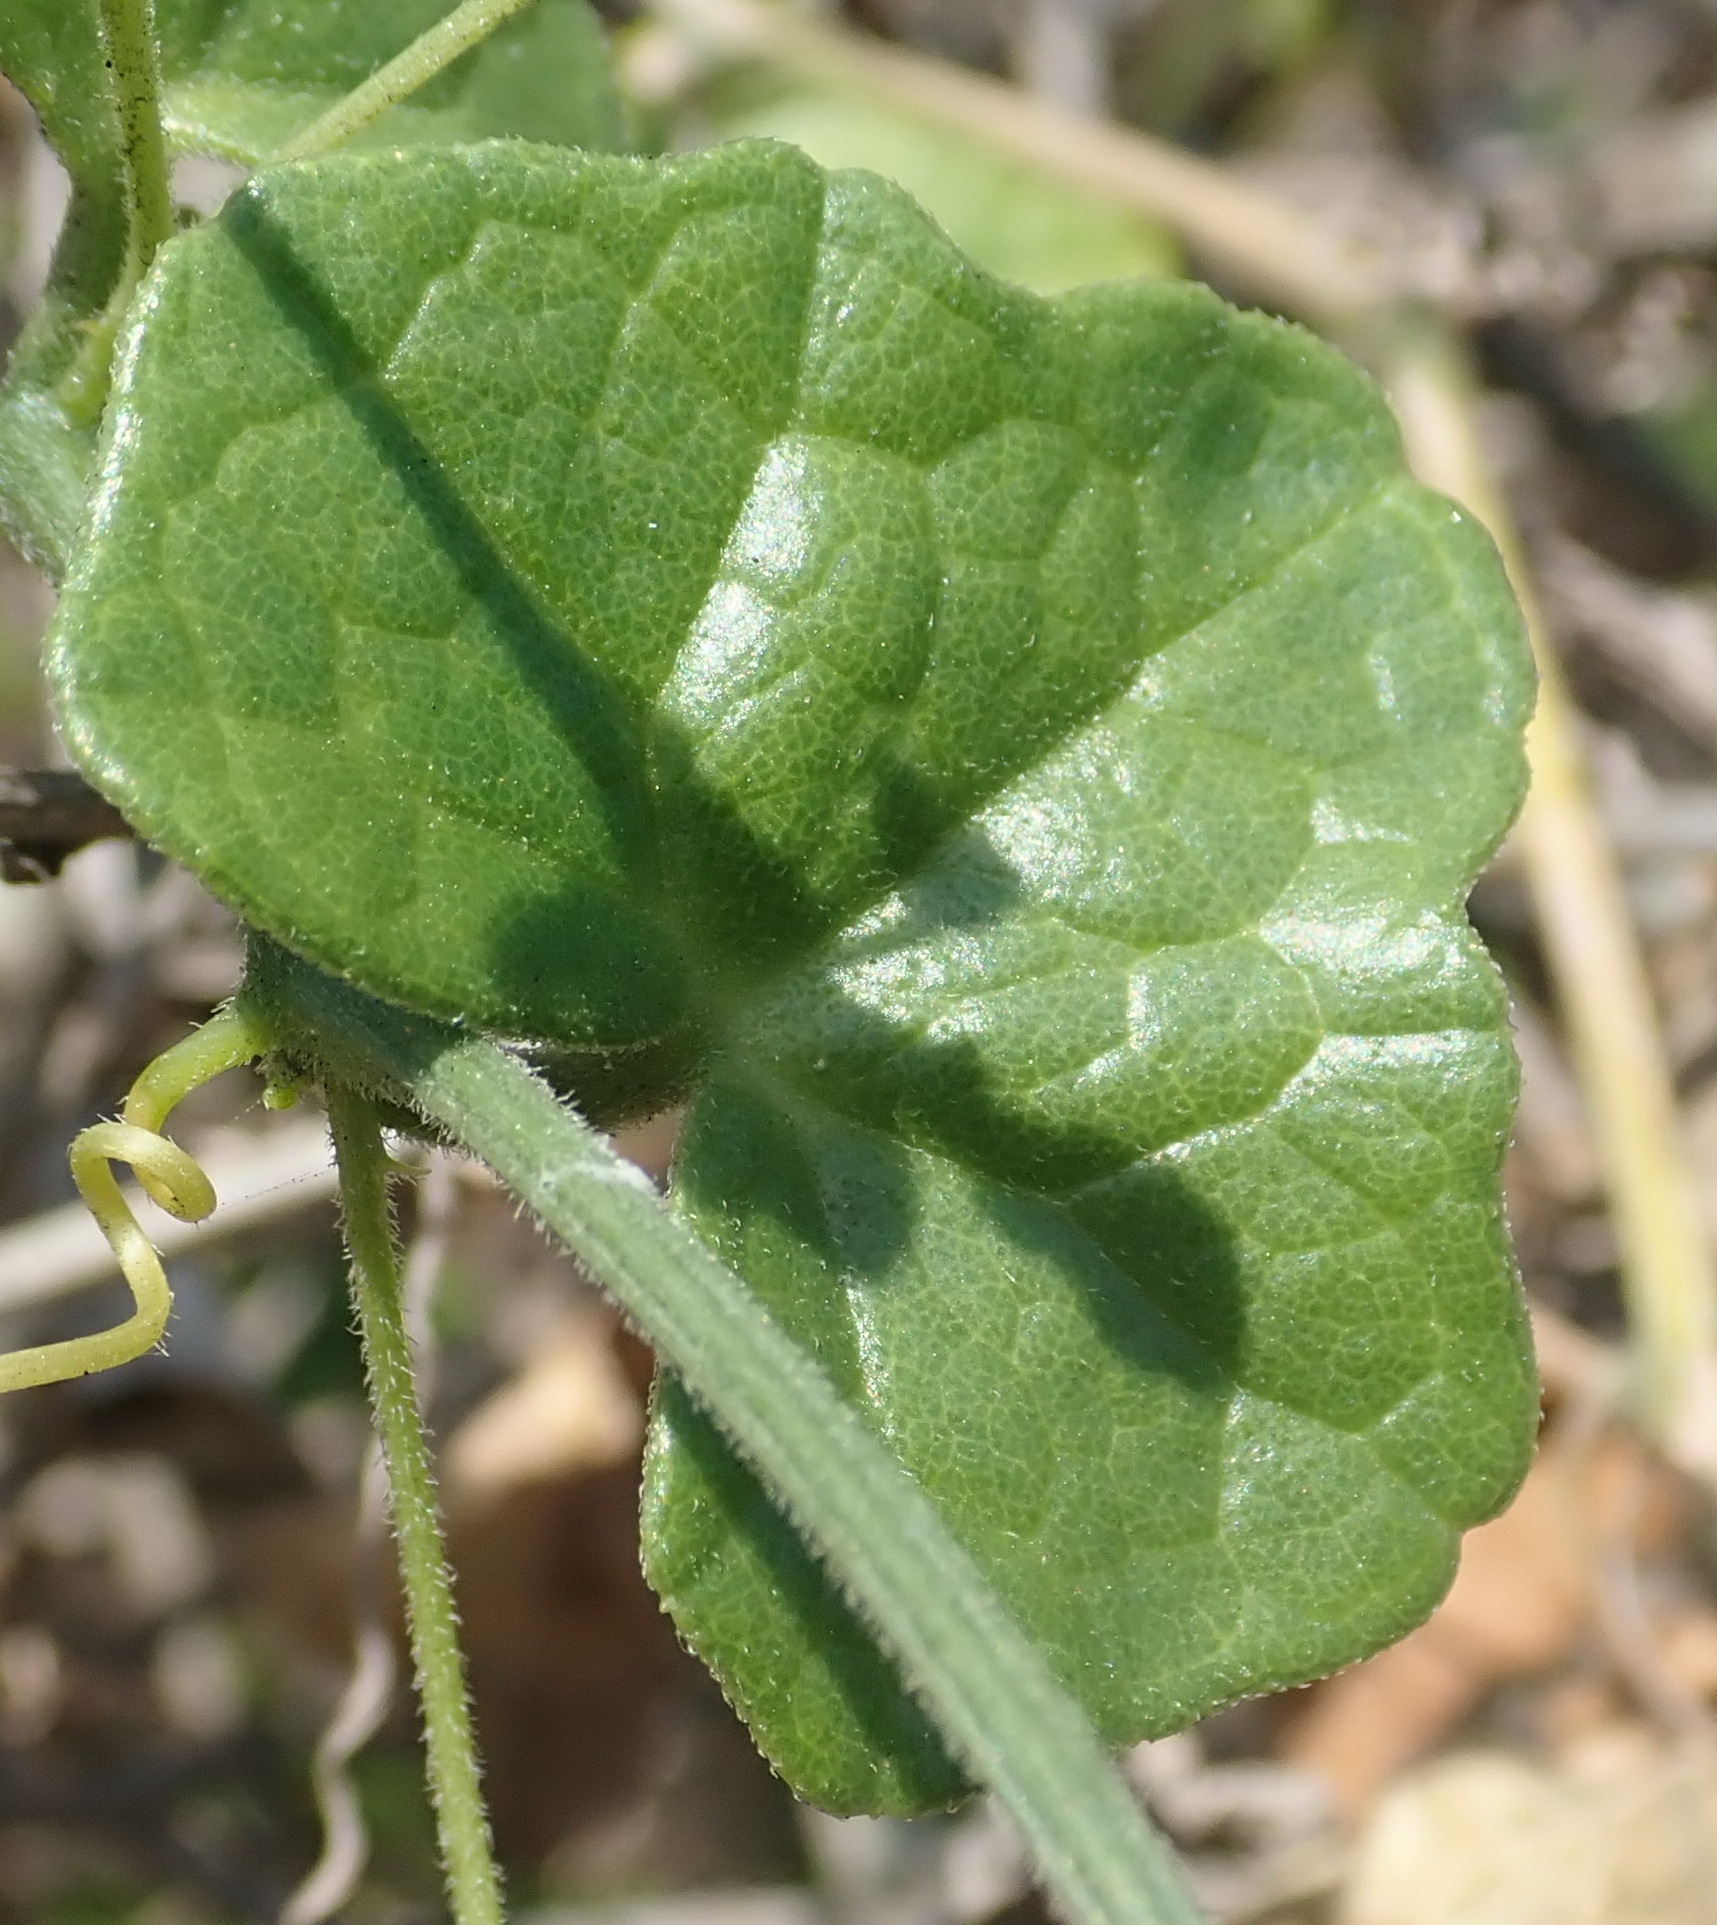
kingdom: Plantae
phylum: Tracheophyta
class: Magnoliopsida
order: Cucurbitales
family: Cucurbitaceae
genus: Kedrostis
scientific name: Kedrostis nana
